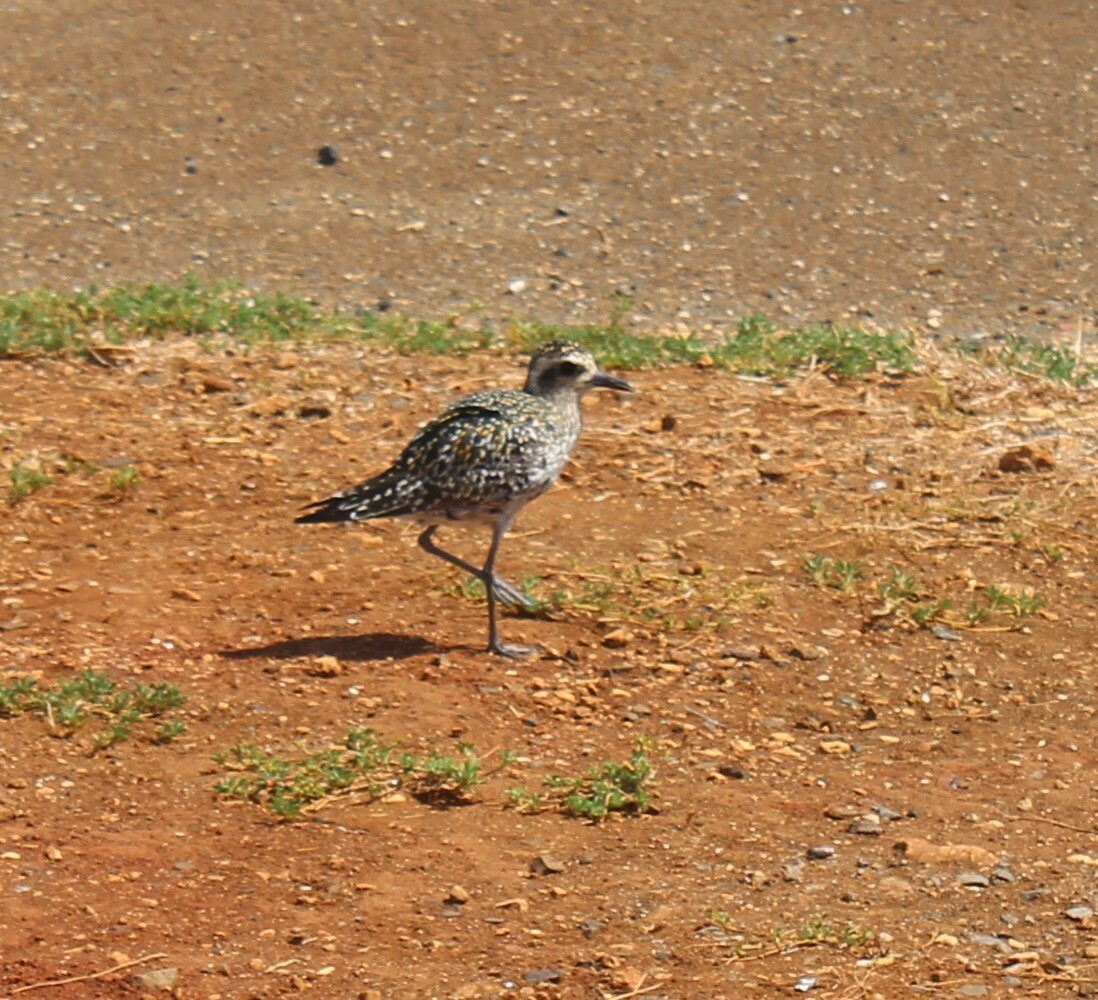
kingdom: Animalia
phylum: Chordata
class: Aves
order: Charadriiformes
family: Charadriidae
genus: Pluvialis
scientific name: Pluvialis fulva
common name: Pacific golden plover
